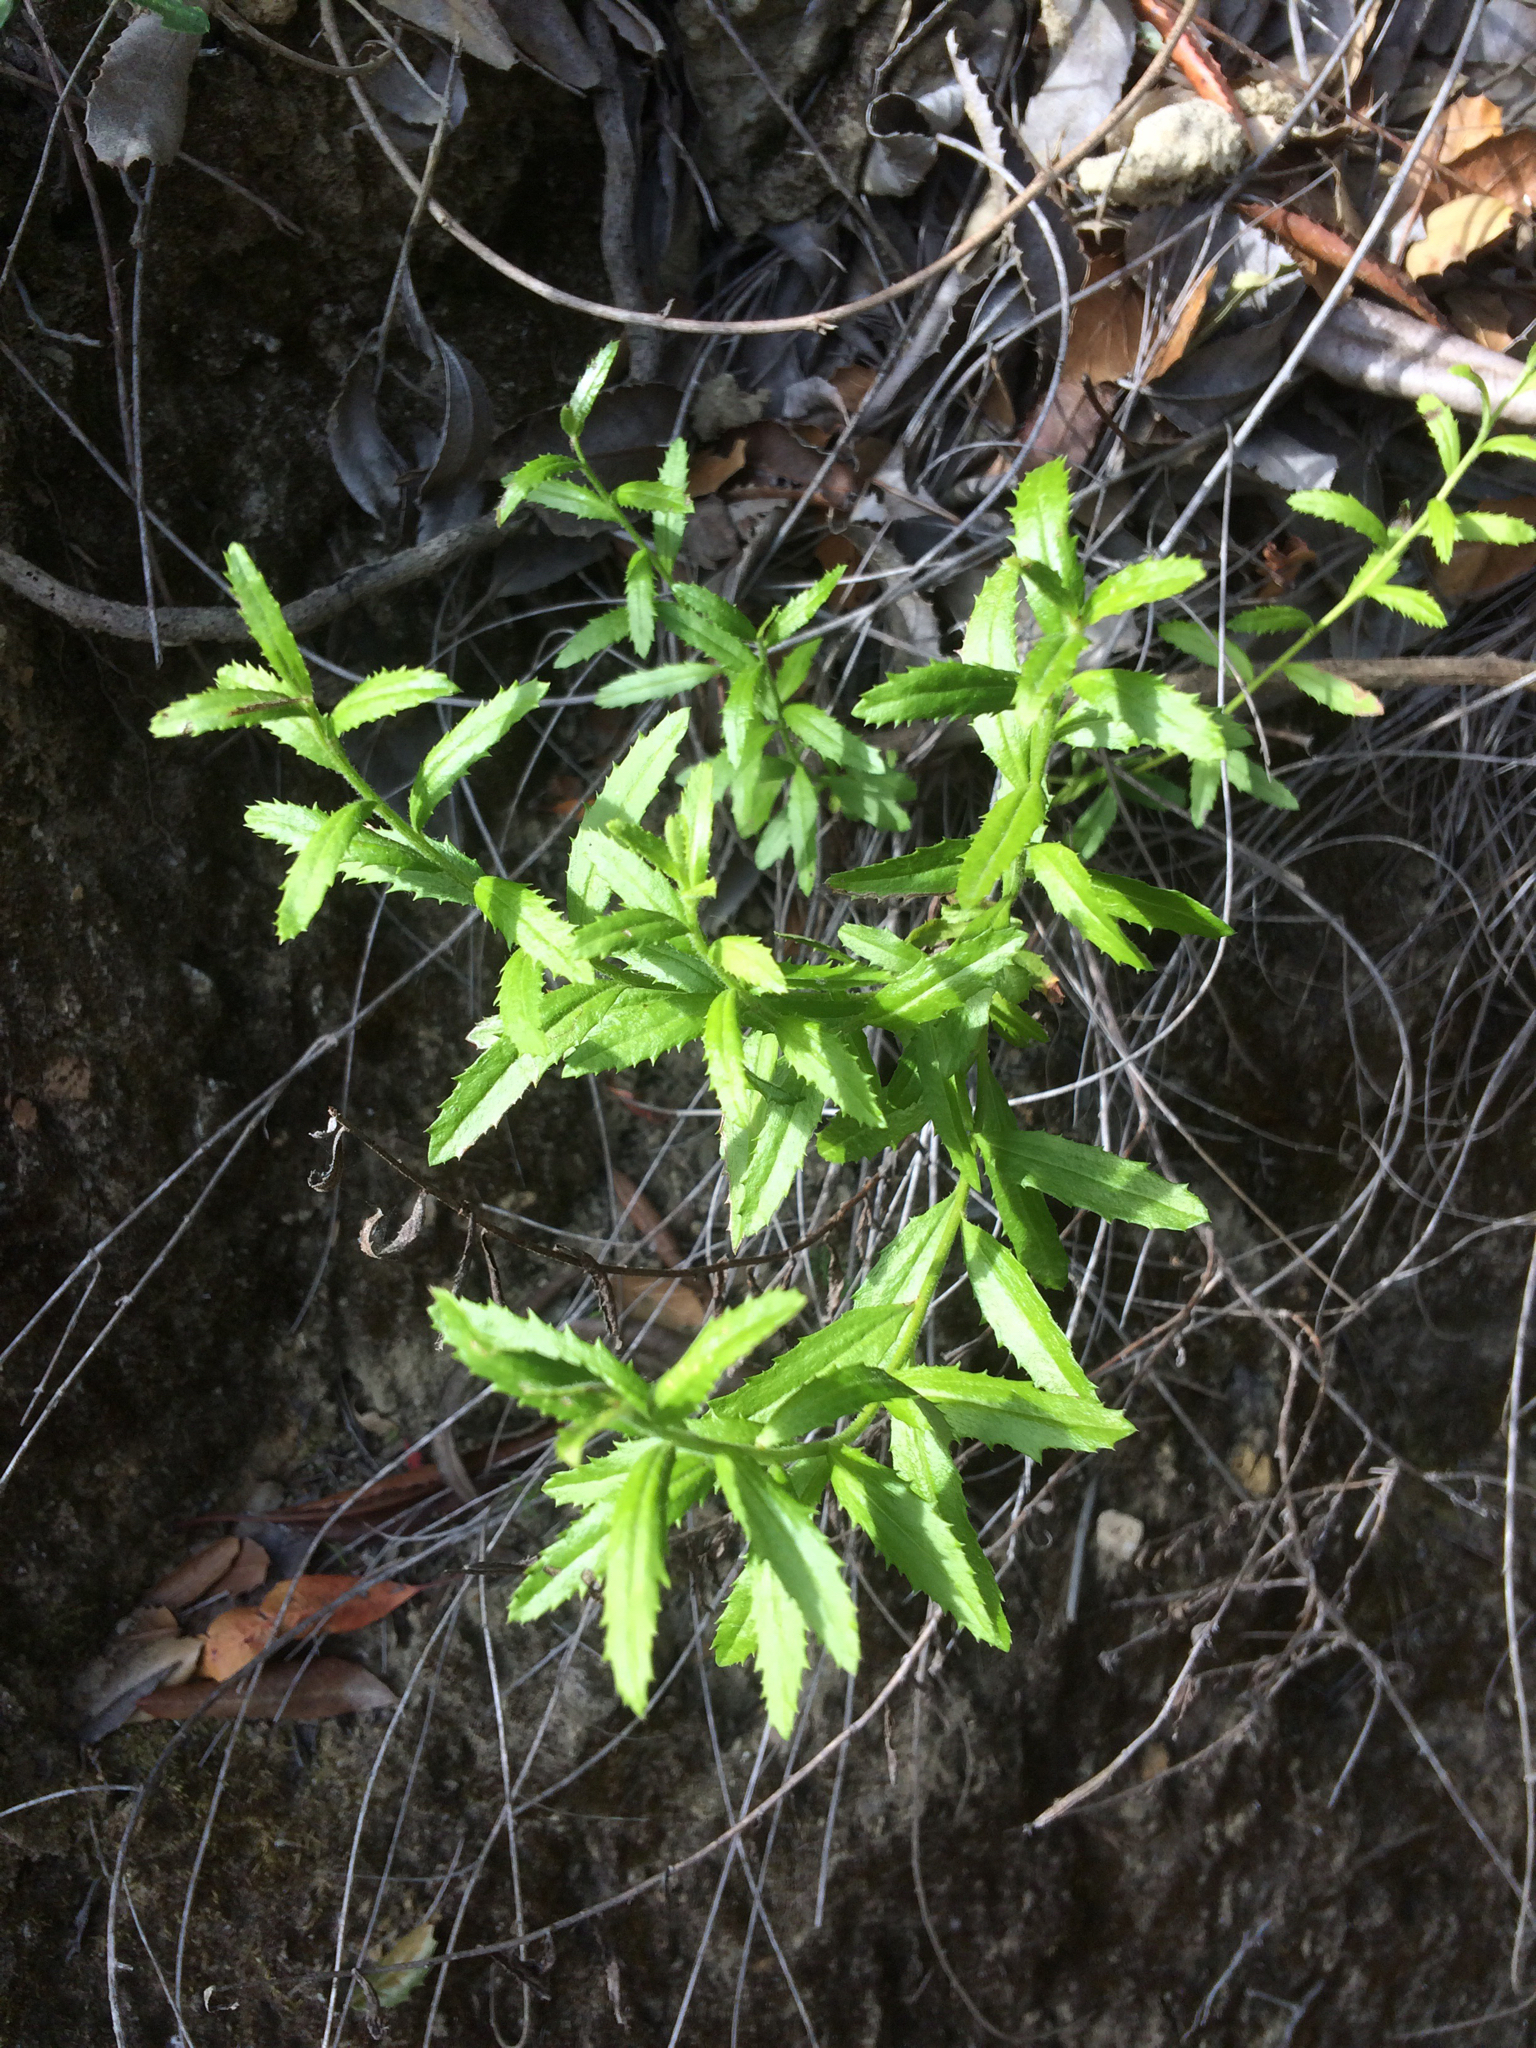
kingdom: Plantae
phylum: Tracheophyta
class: Magnoliopsida
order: Asterales
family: Asteraceae
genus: Baccharis
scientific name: Baccharis plummerae
